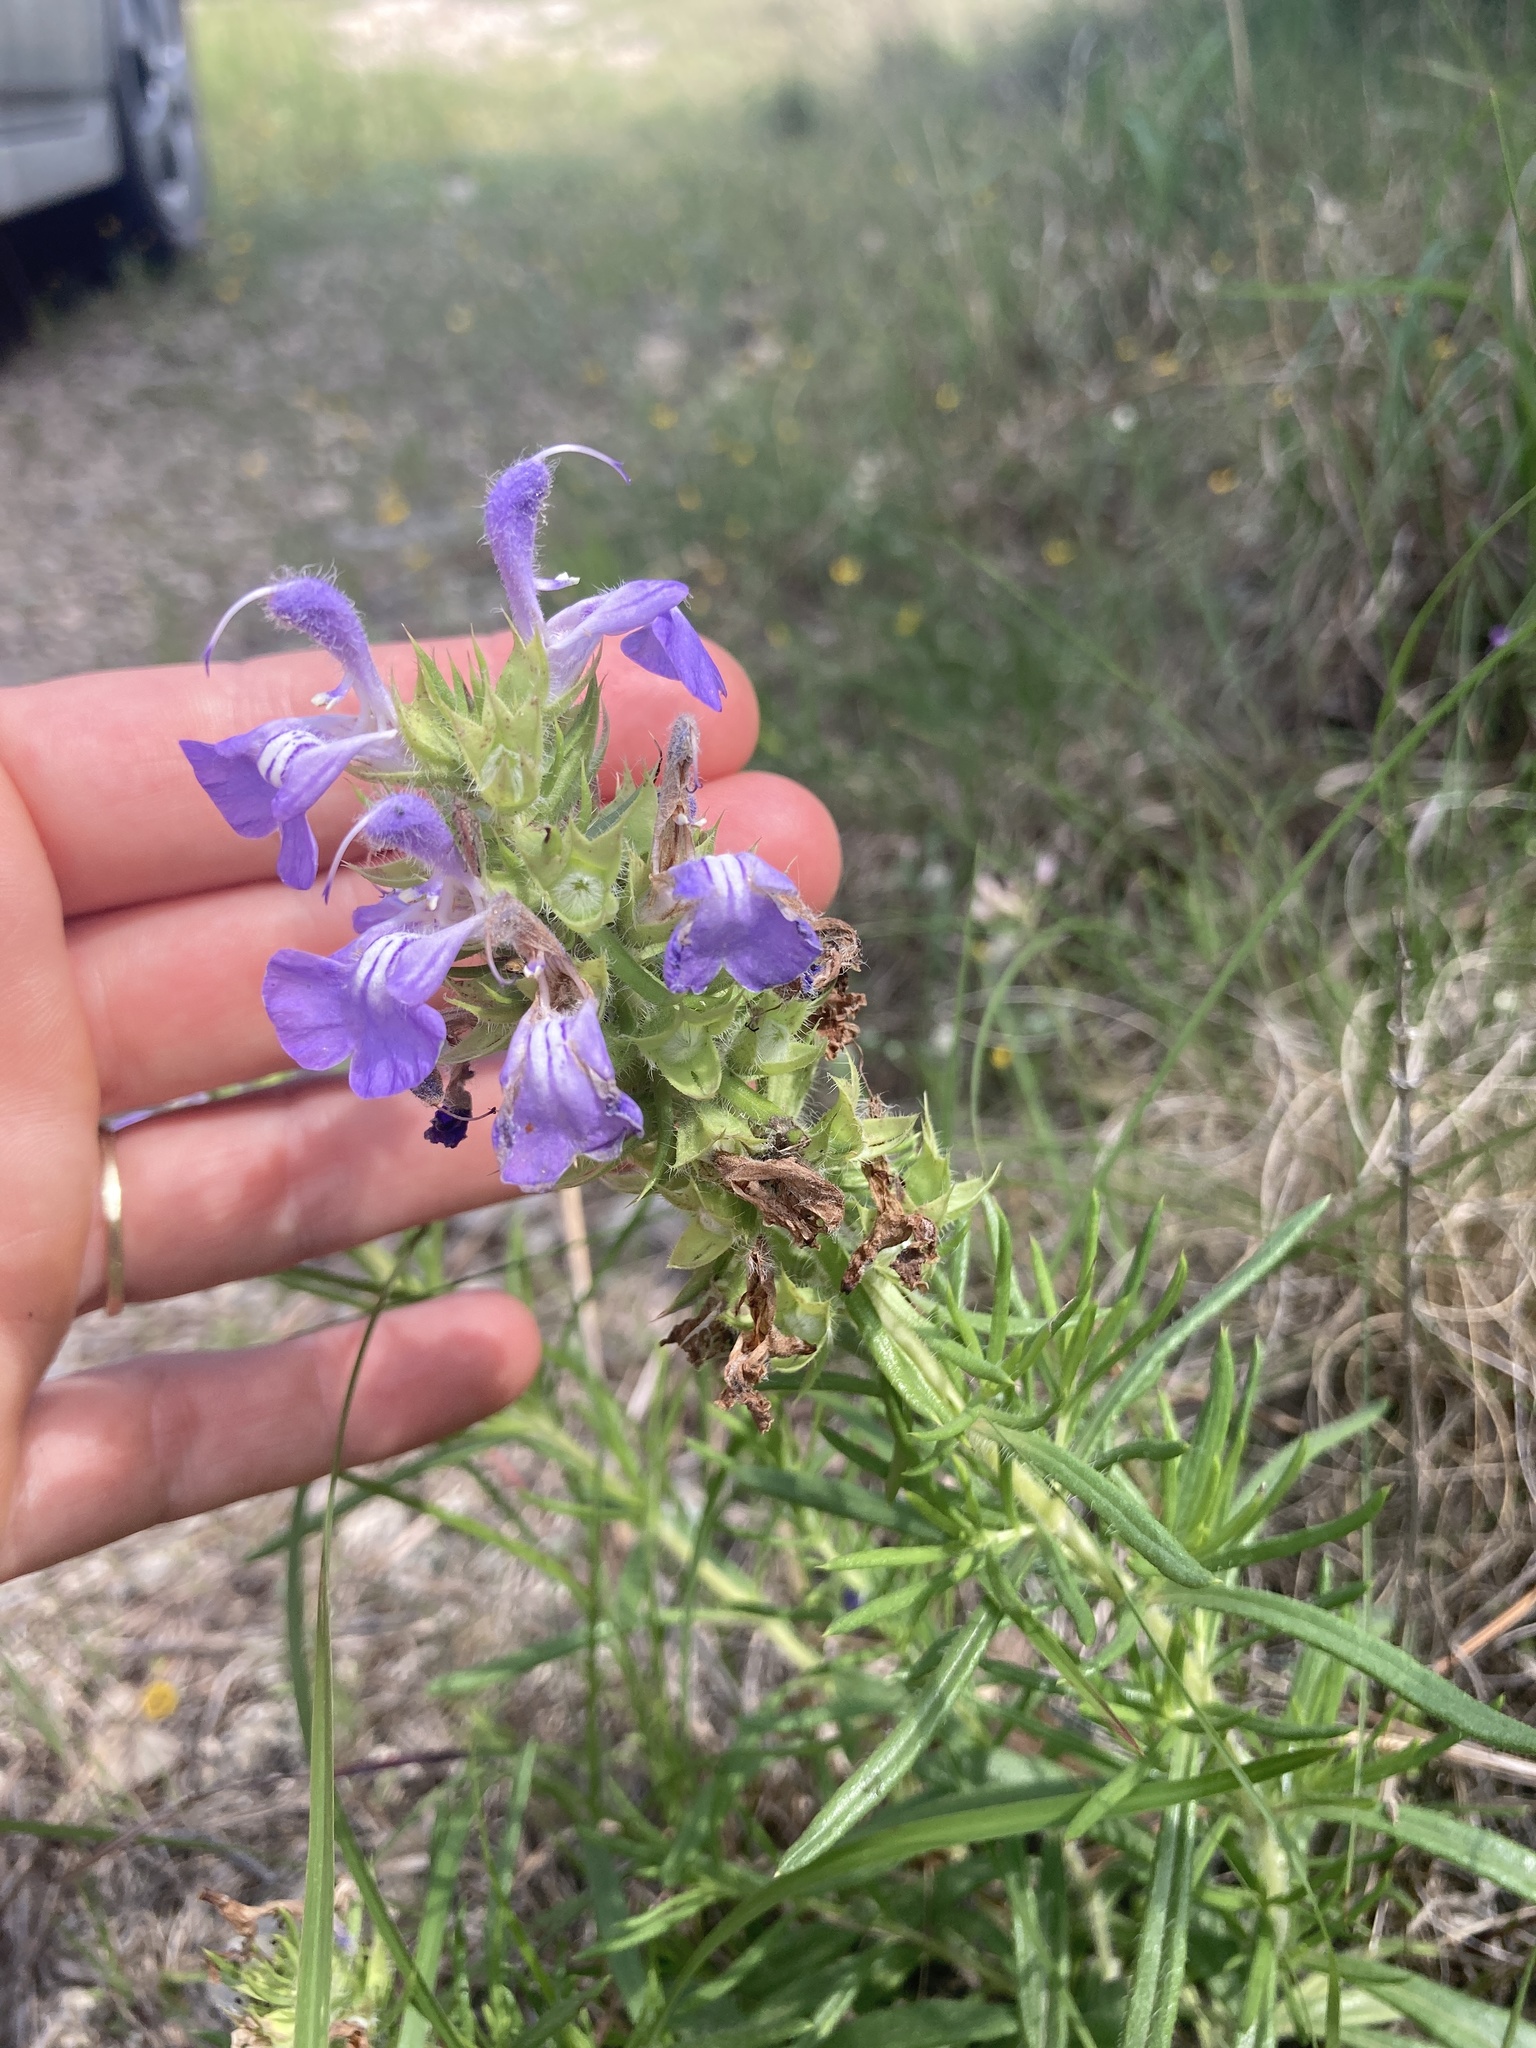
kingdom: Plantae
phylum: Tracheophyta
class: Magnoliopsida
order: Lamiales
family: Lamiaceae
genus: Salvia
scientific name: Salvia engelmannii
